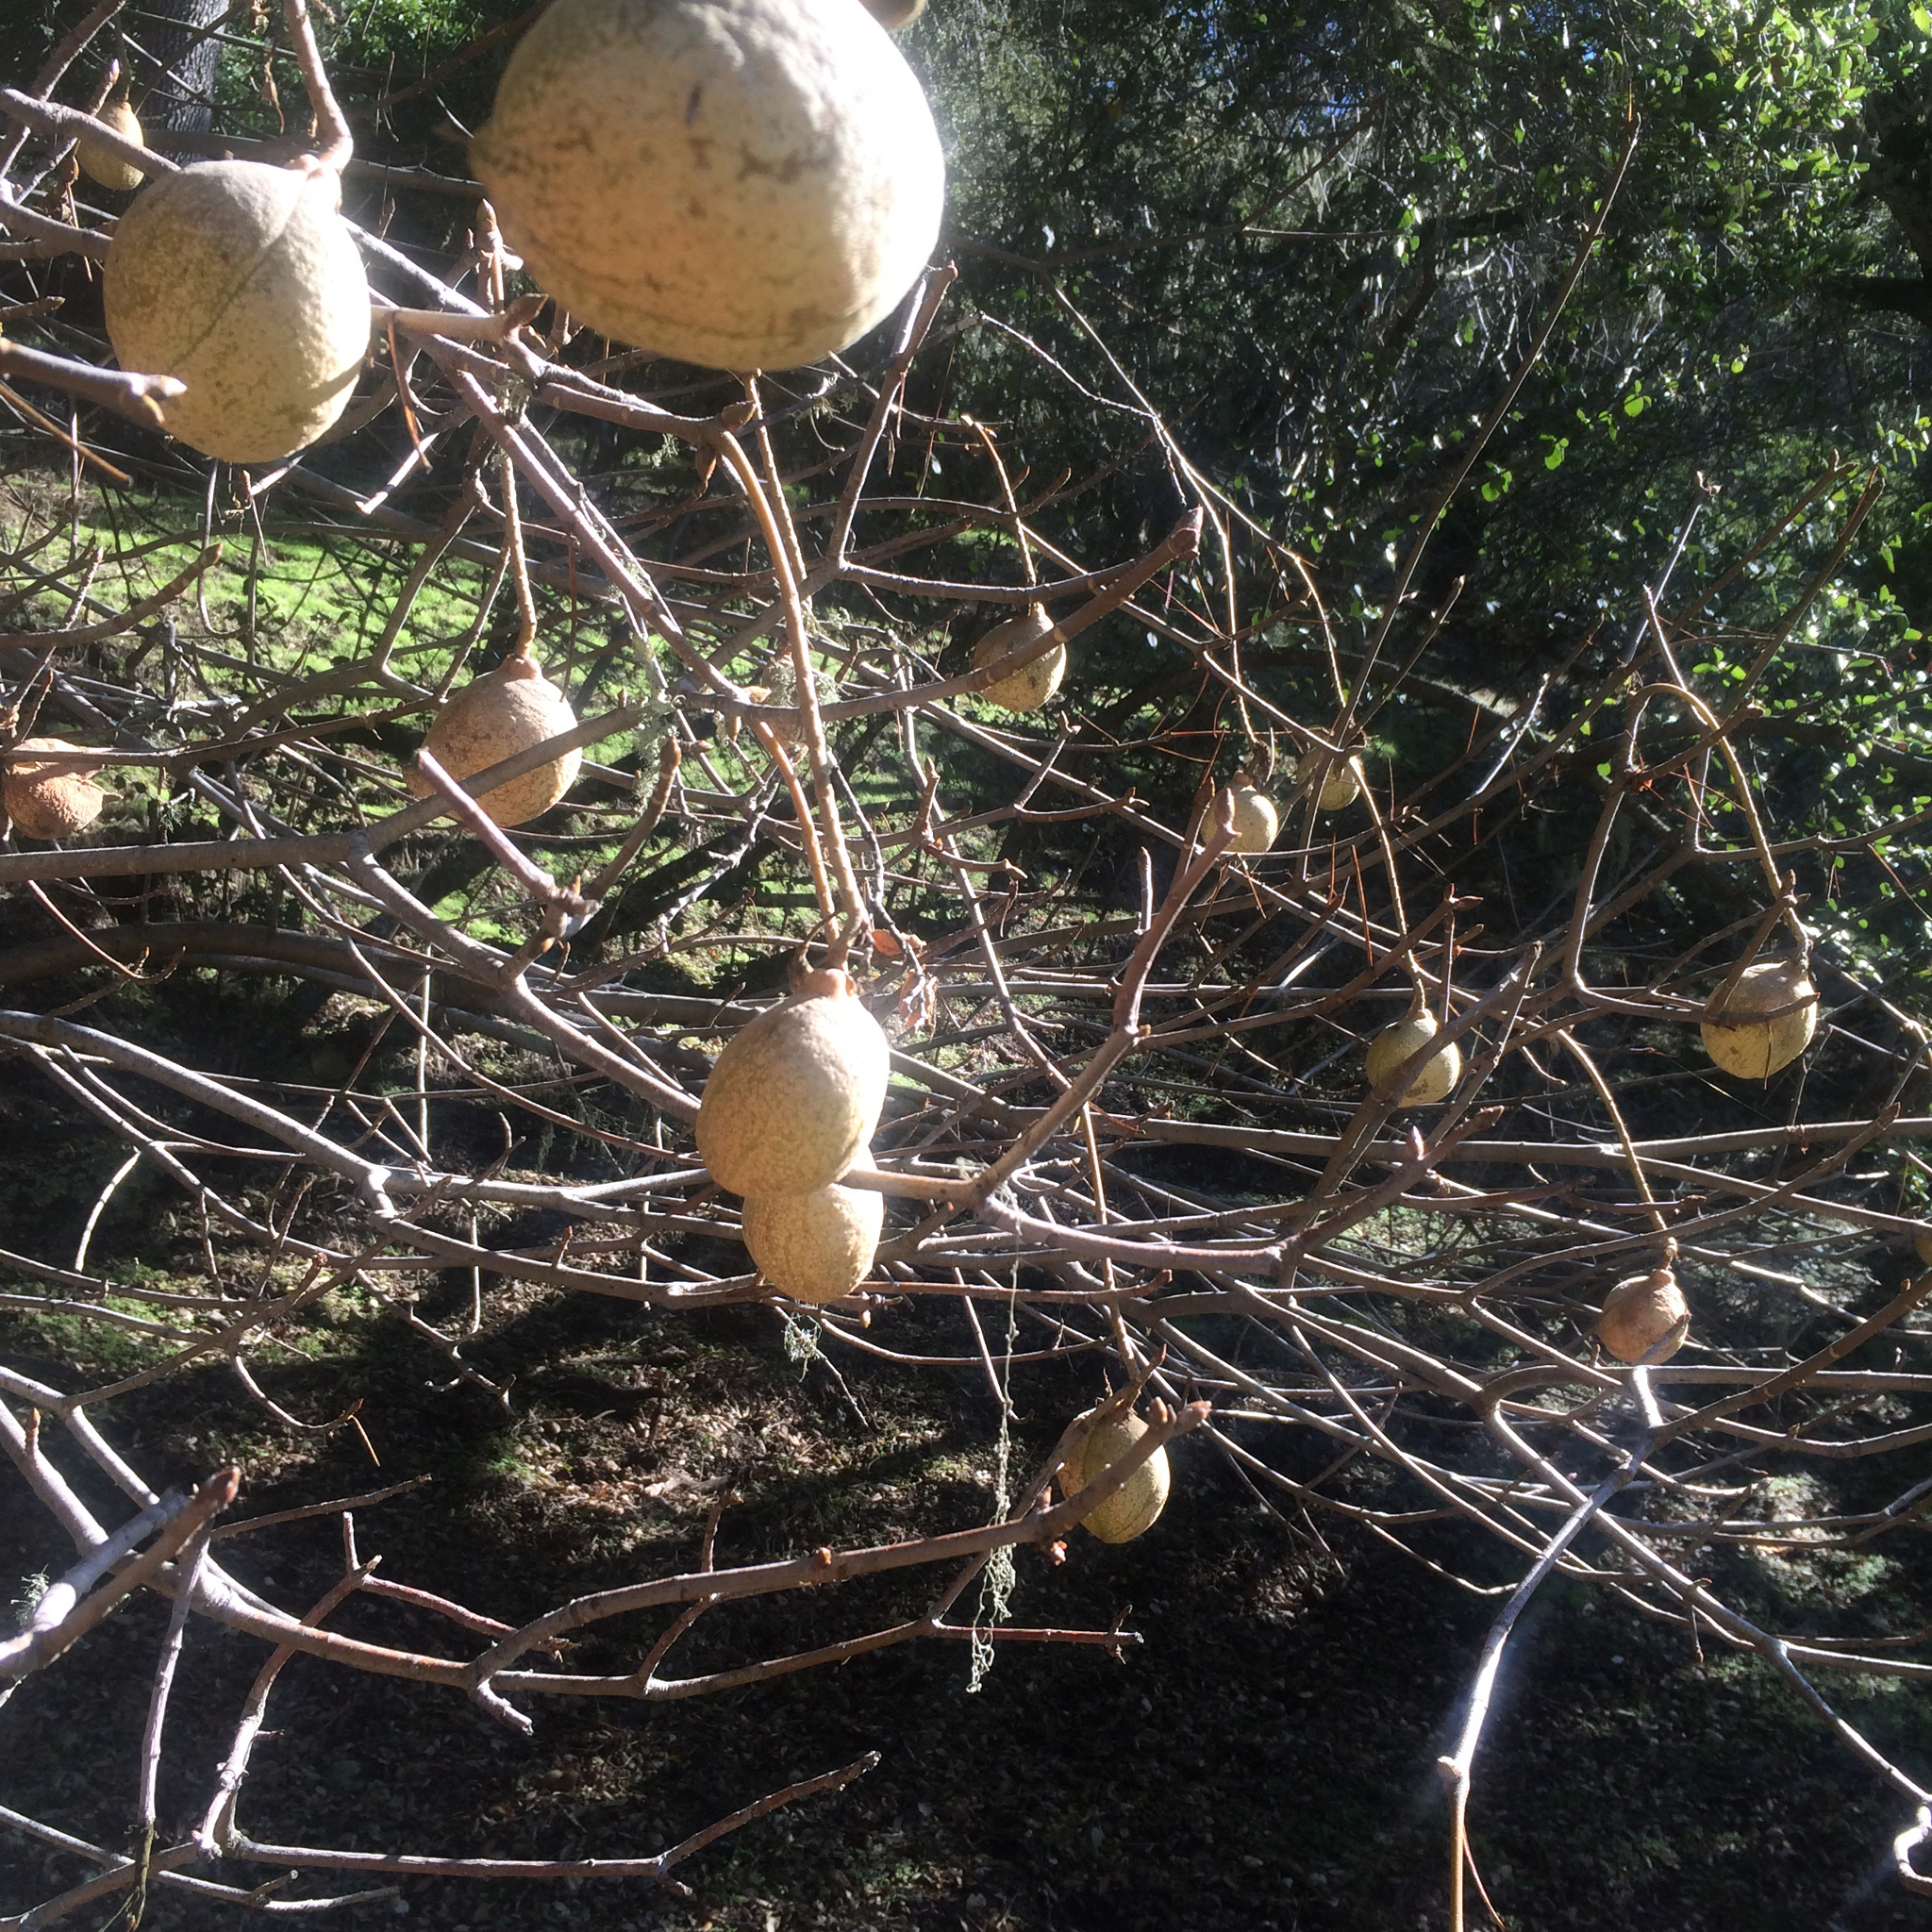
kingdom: Plantae
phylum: Tracheophyta
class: Magnoliopsida
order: Sapindales
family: Sapindaceae
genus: Aesculus
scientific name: Aesculus californica
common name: California buckeye
